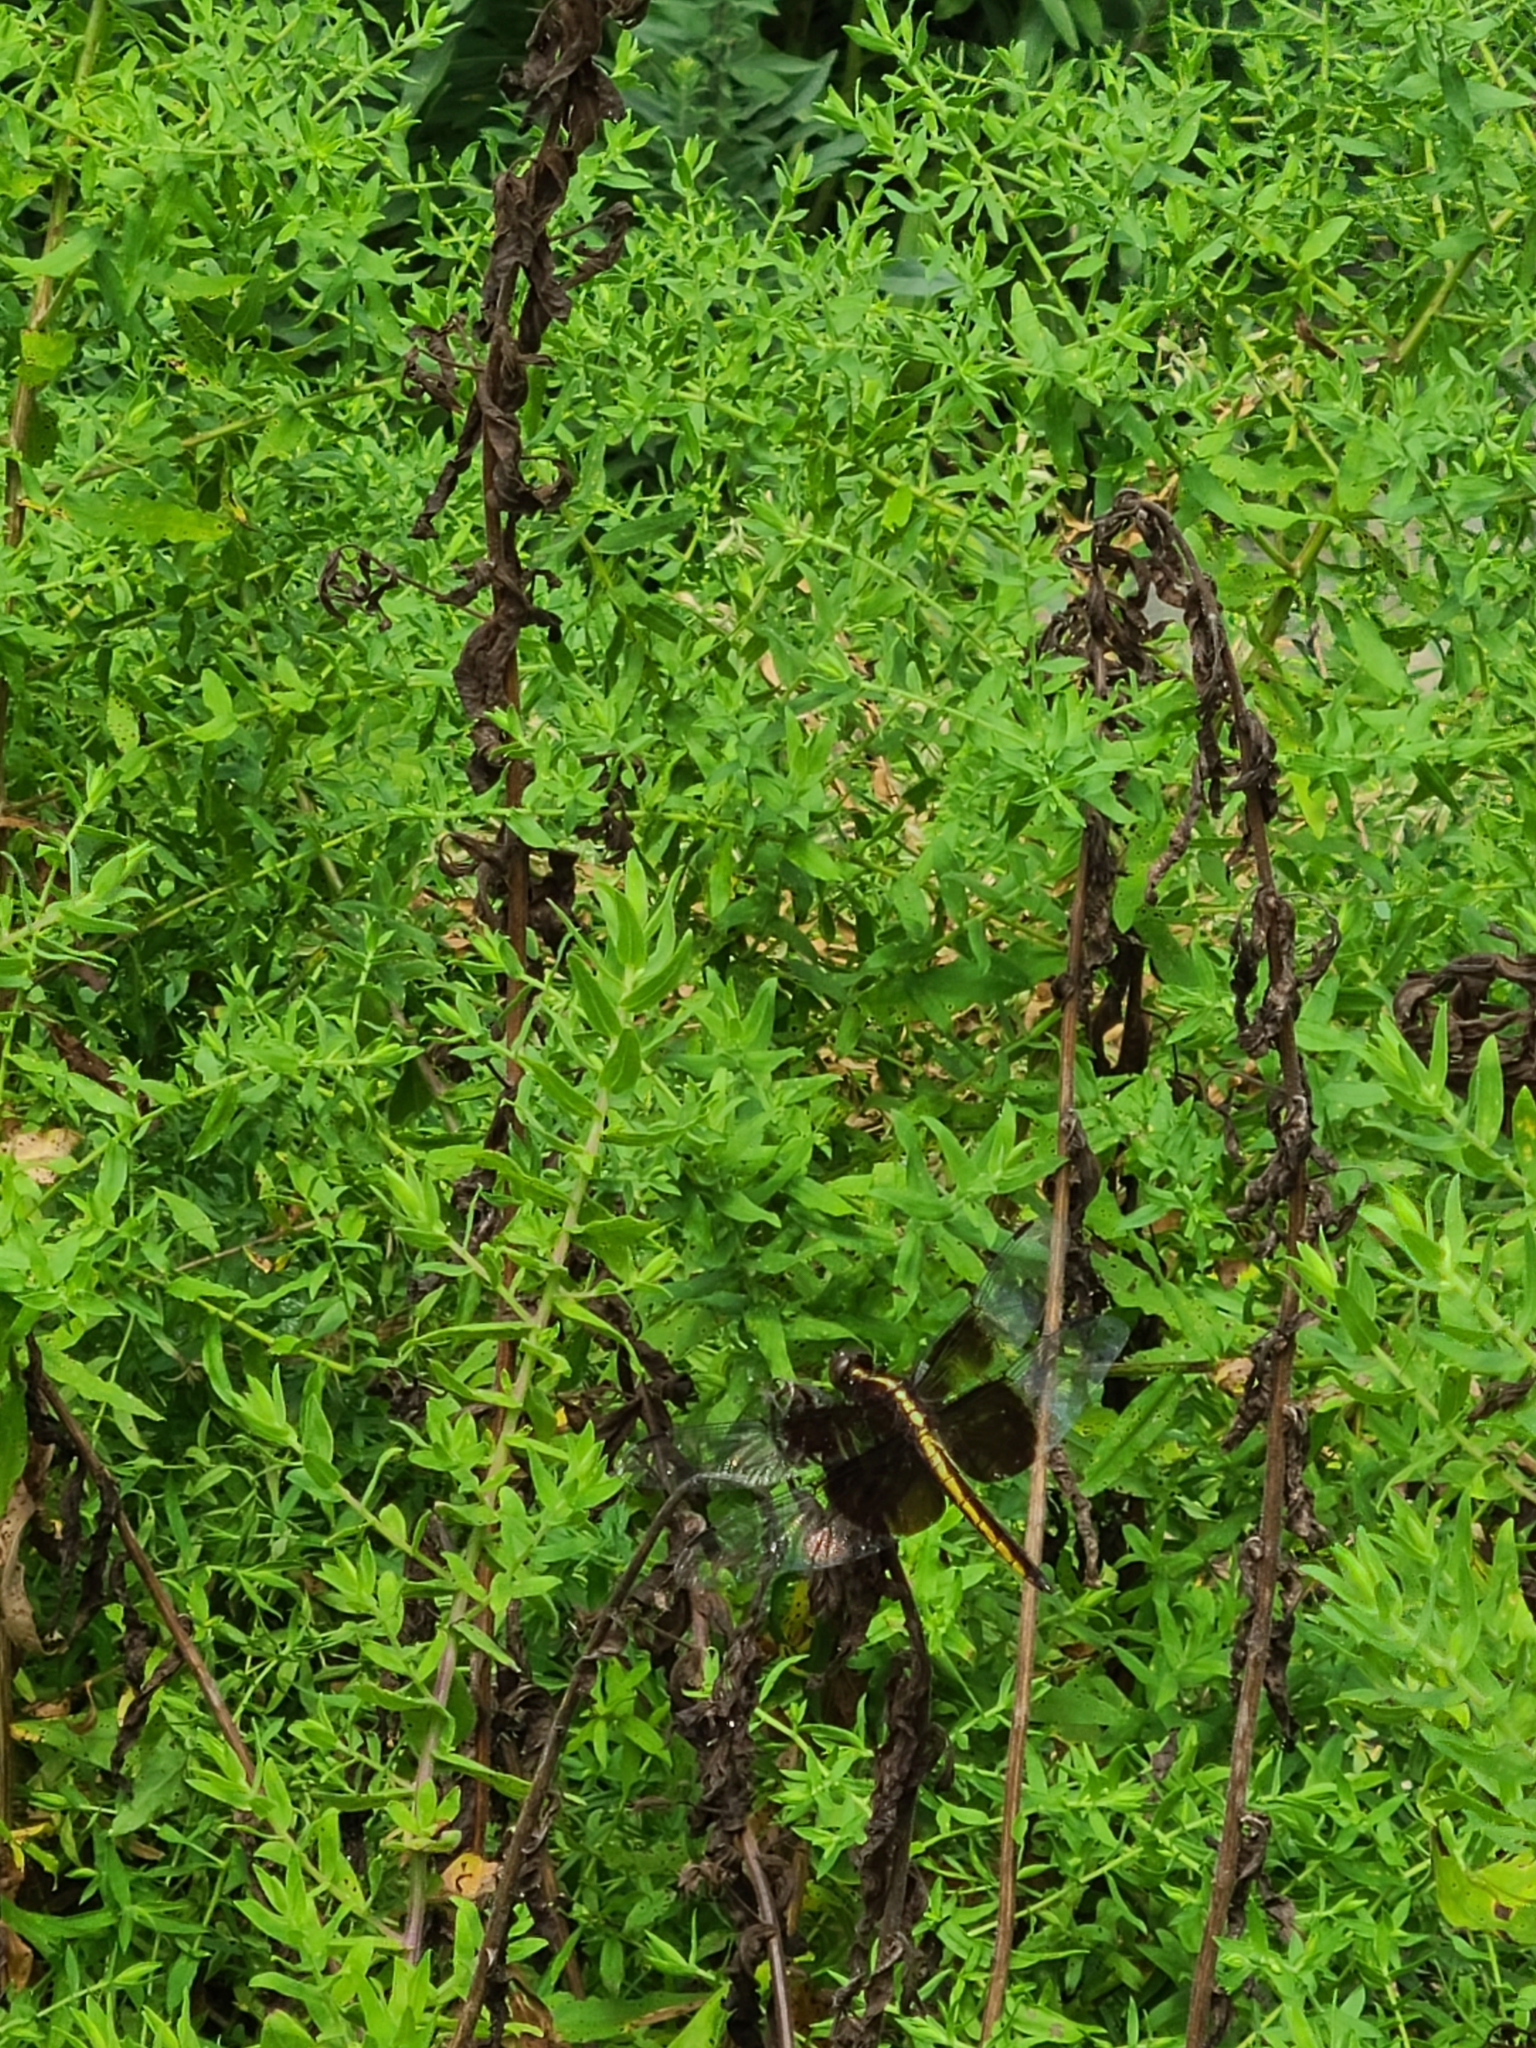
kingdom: Animalia
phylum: Arthropoda
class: Insecta
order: Odonata
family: Libellulidae
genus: Libellula
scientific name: Libellula luctuosa
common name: Widow skimmer
